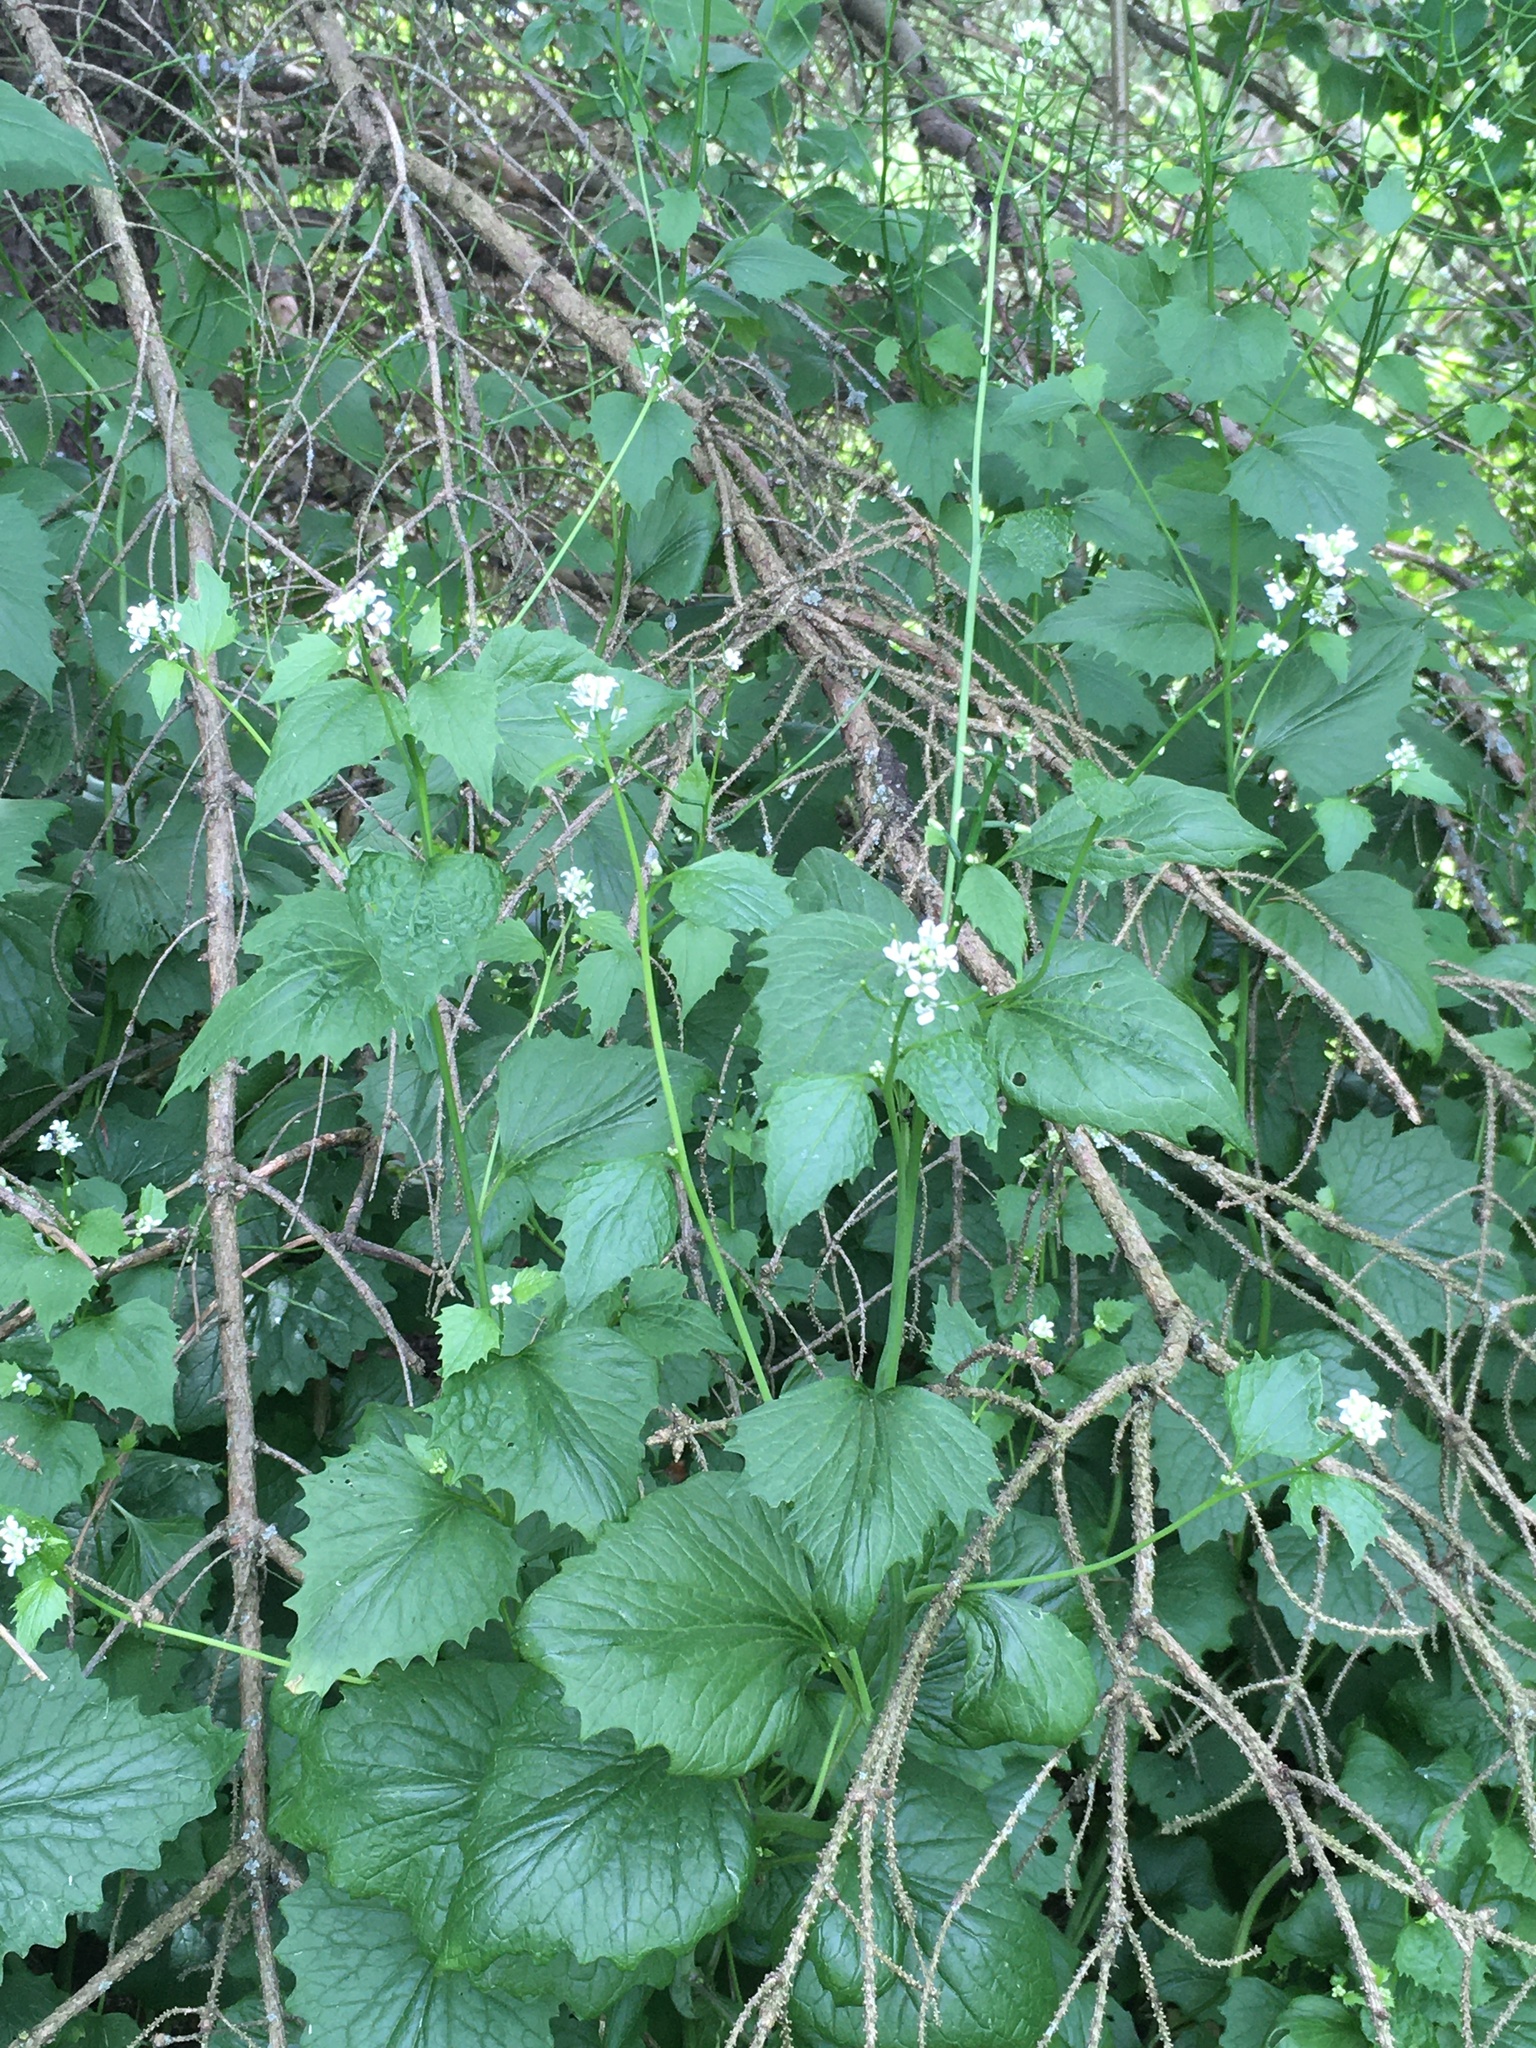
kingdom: Plantae
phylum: Tracheophyta
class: Magnoliopsida
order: Brassicales
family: Brassicaceae
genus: Alliaria
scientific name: Alliaria petiolata
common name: Garlic mustard
